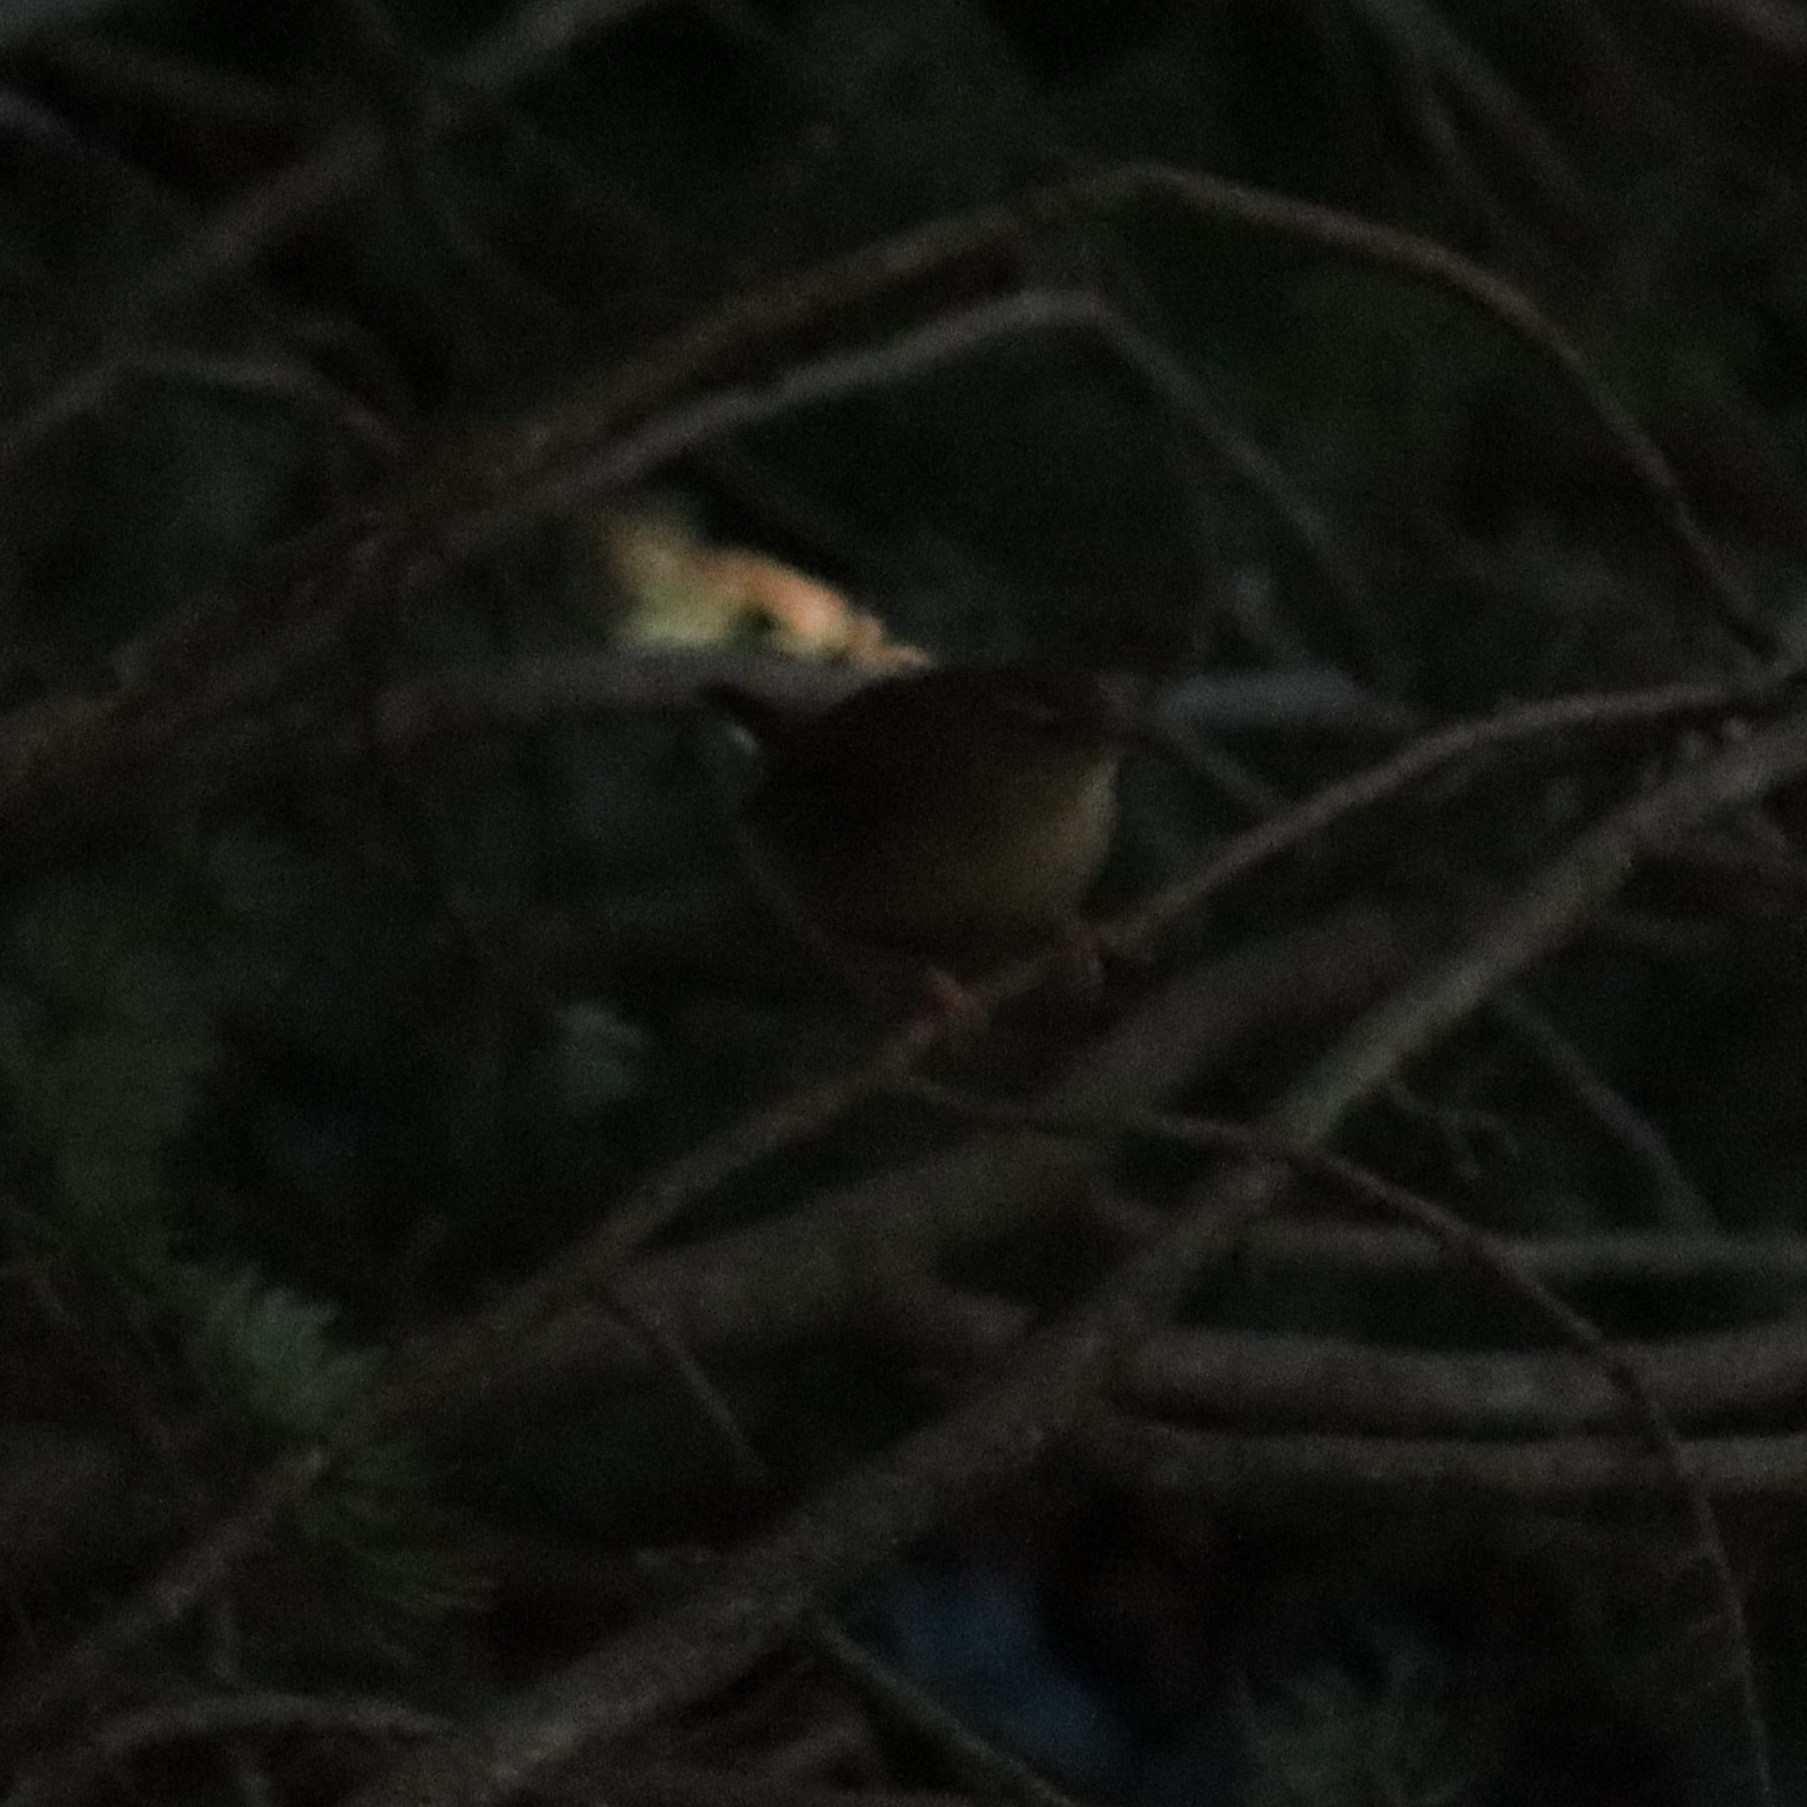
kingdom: Animalia
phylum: Chordata
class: Aves
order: Passeriformes
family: Troglodytidae
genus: Troglodytes
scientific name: Troglodytes troglodytes
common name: Eurasian wren
